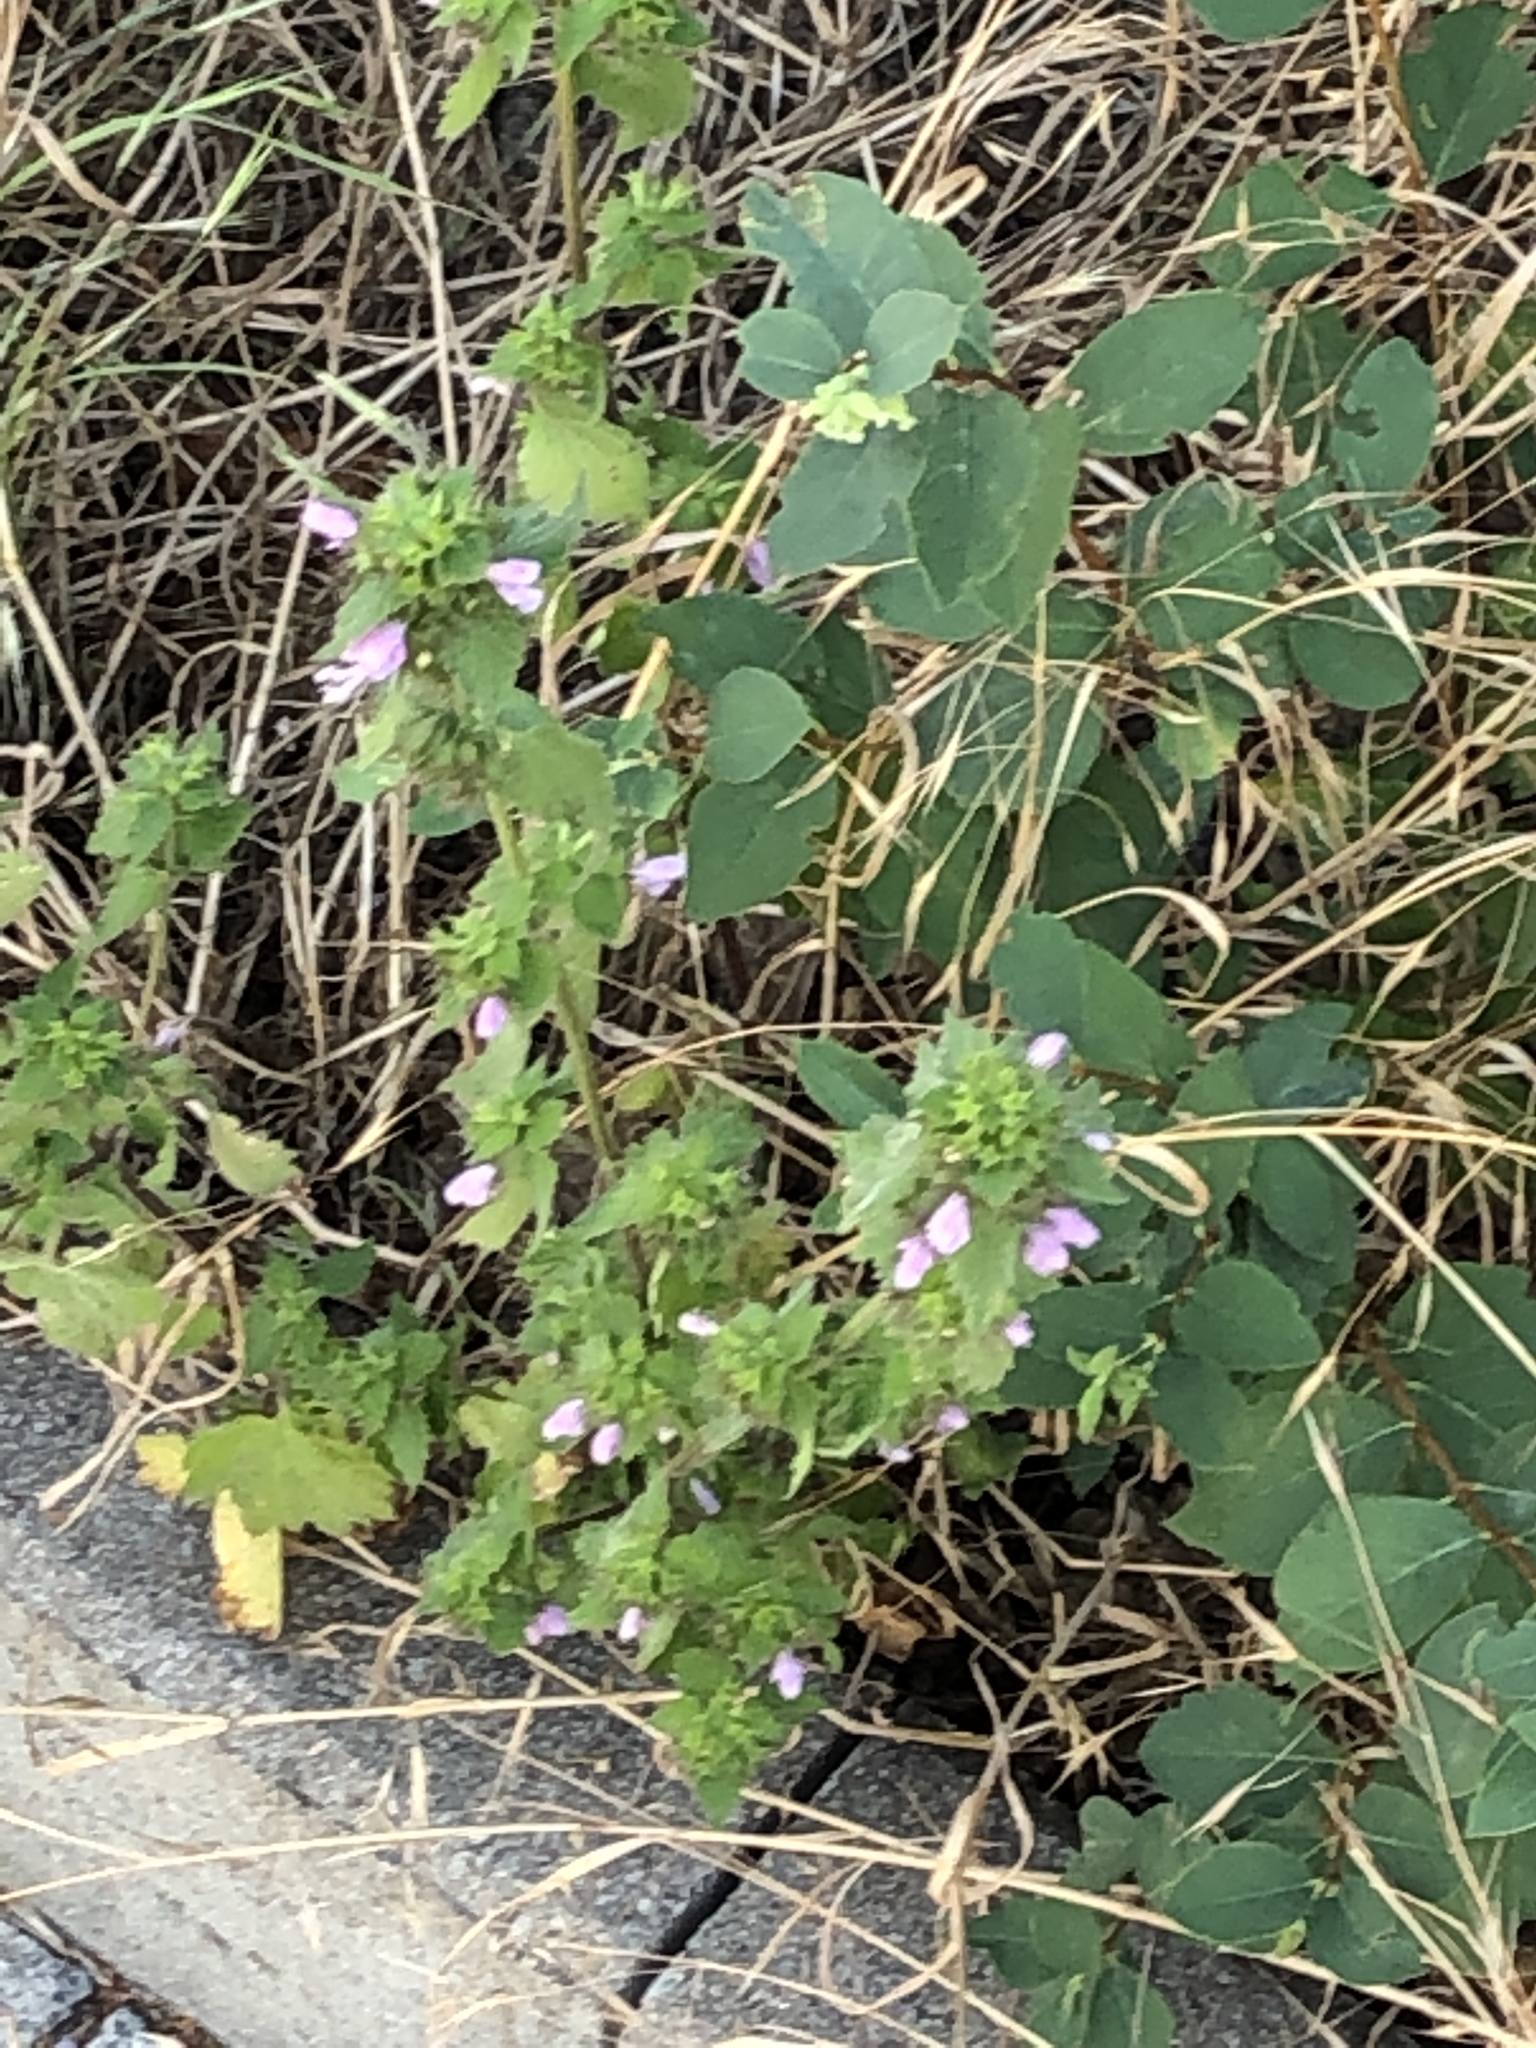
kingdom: Plantae
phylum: Tracheophyta
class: Magnoliopsida
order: Lamiales
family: Lamiaceae
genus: Ballota
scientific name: Ballota nigra
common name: Black horehound
